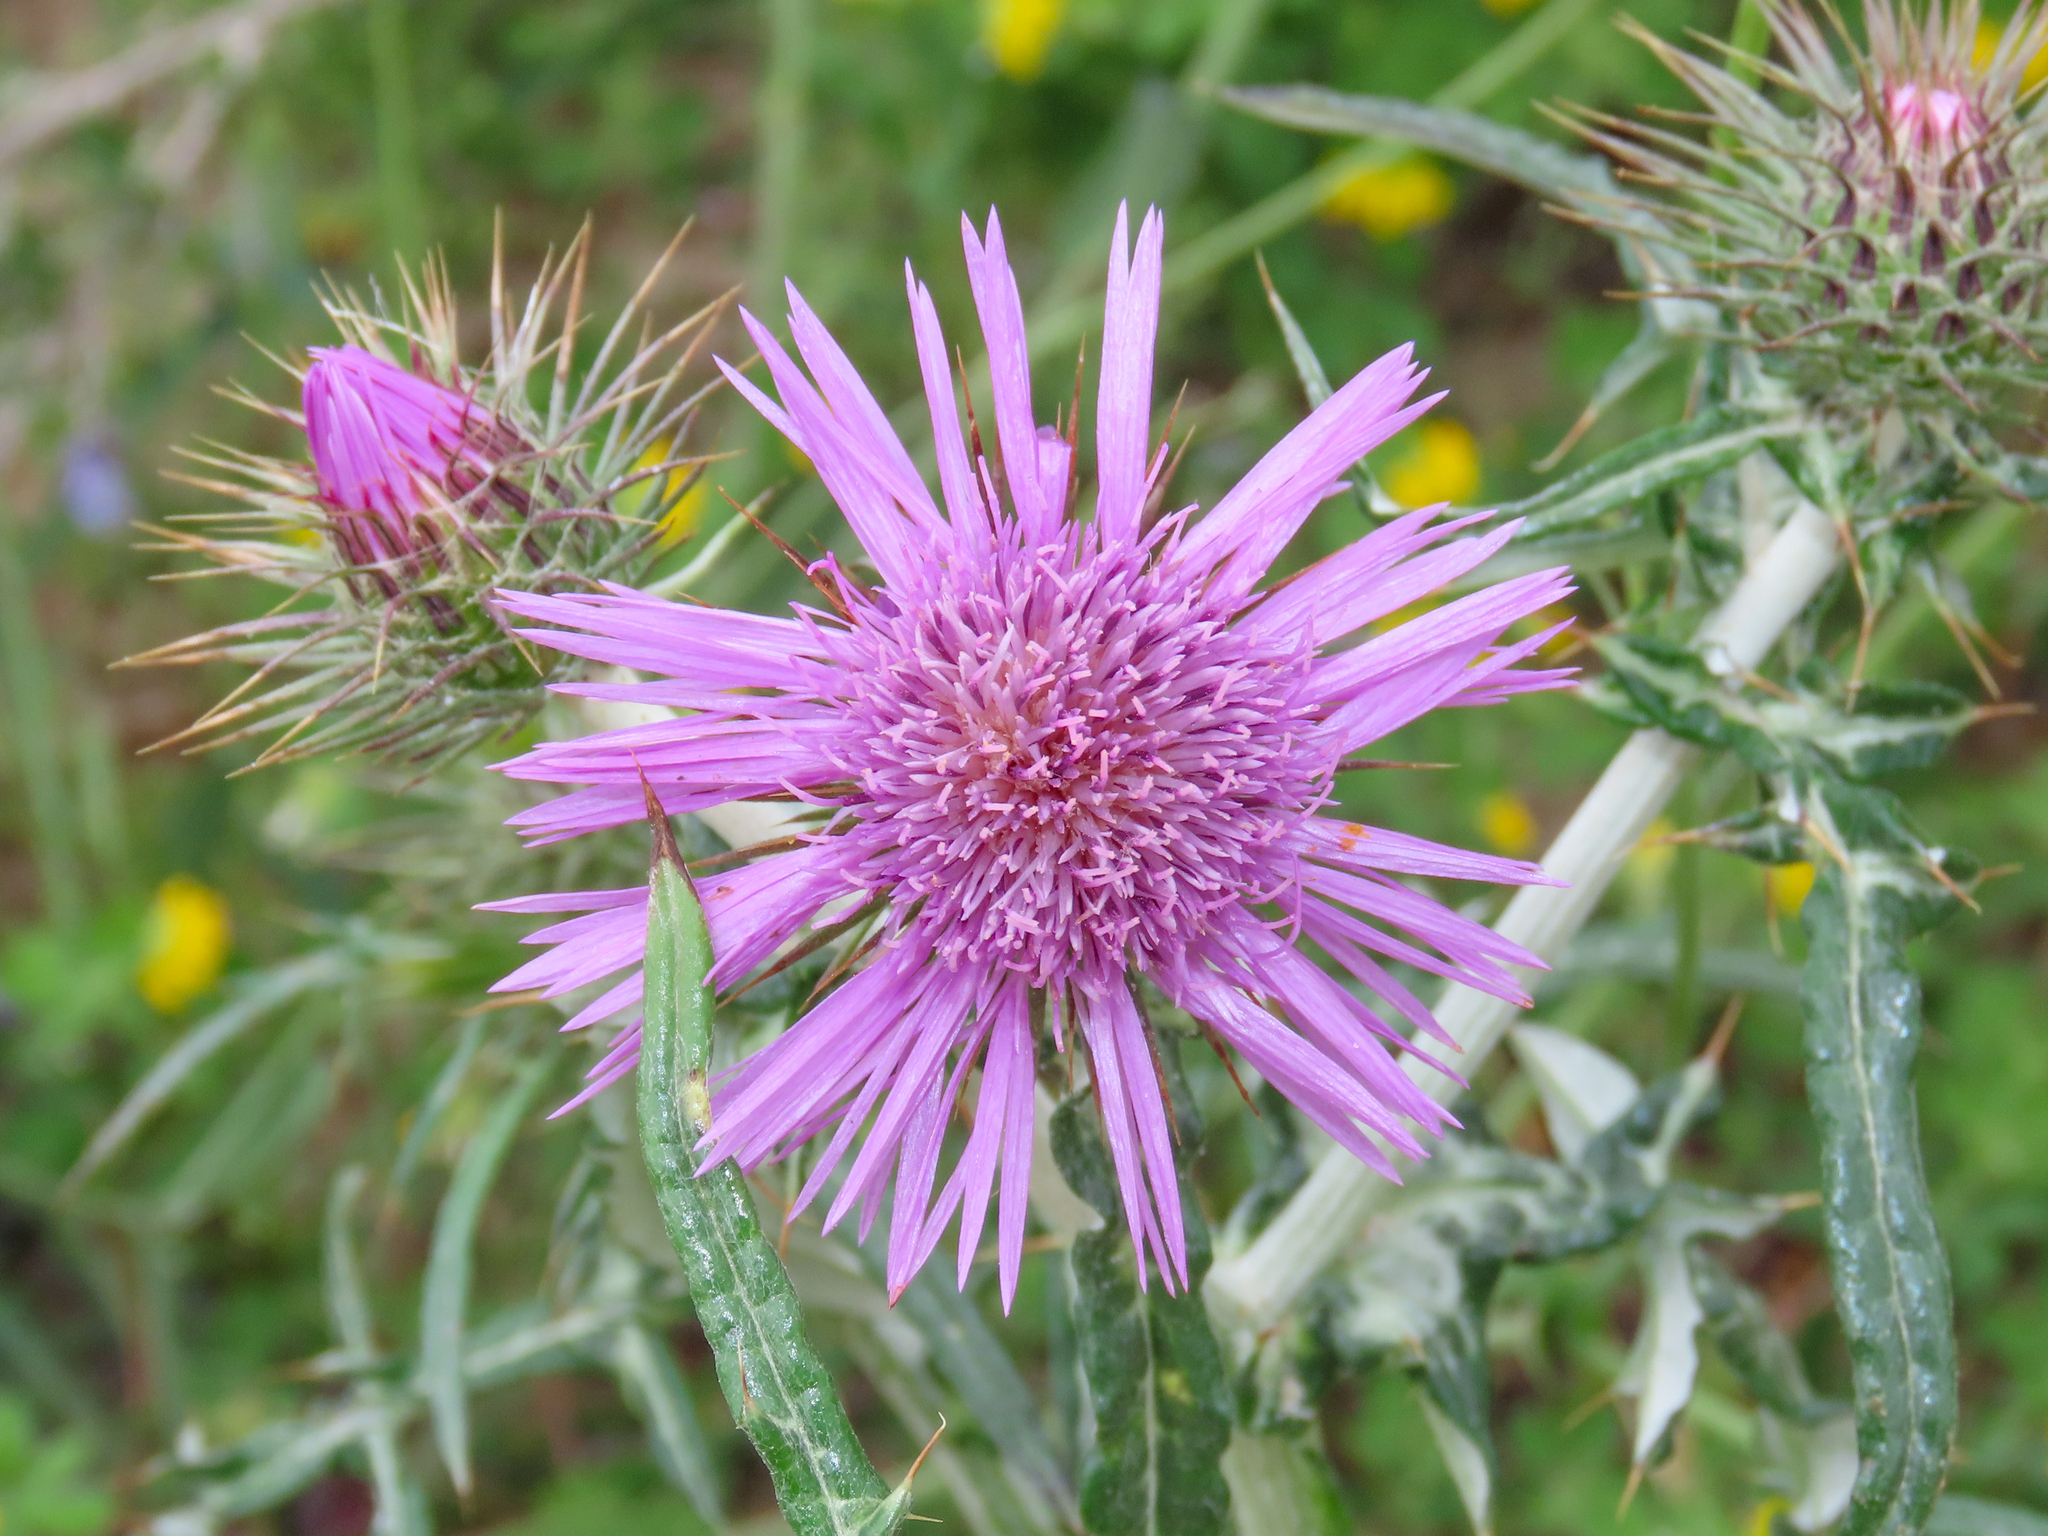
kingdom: Plantae
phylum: Tracheophyta
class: Magnoliopsida
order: Asterales
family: Asteraceae
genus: Galactites
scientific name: Galactites tomentosa
